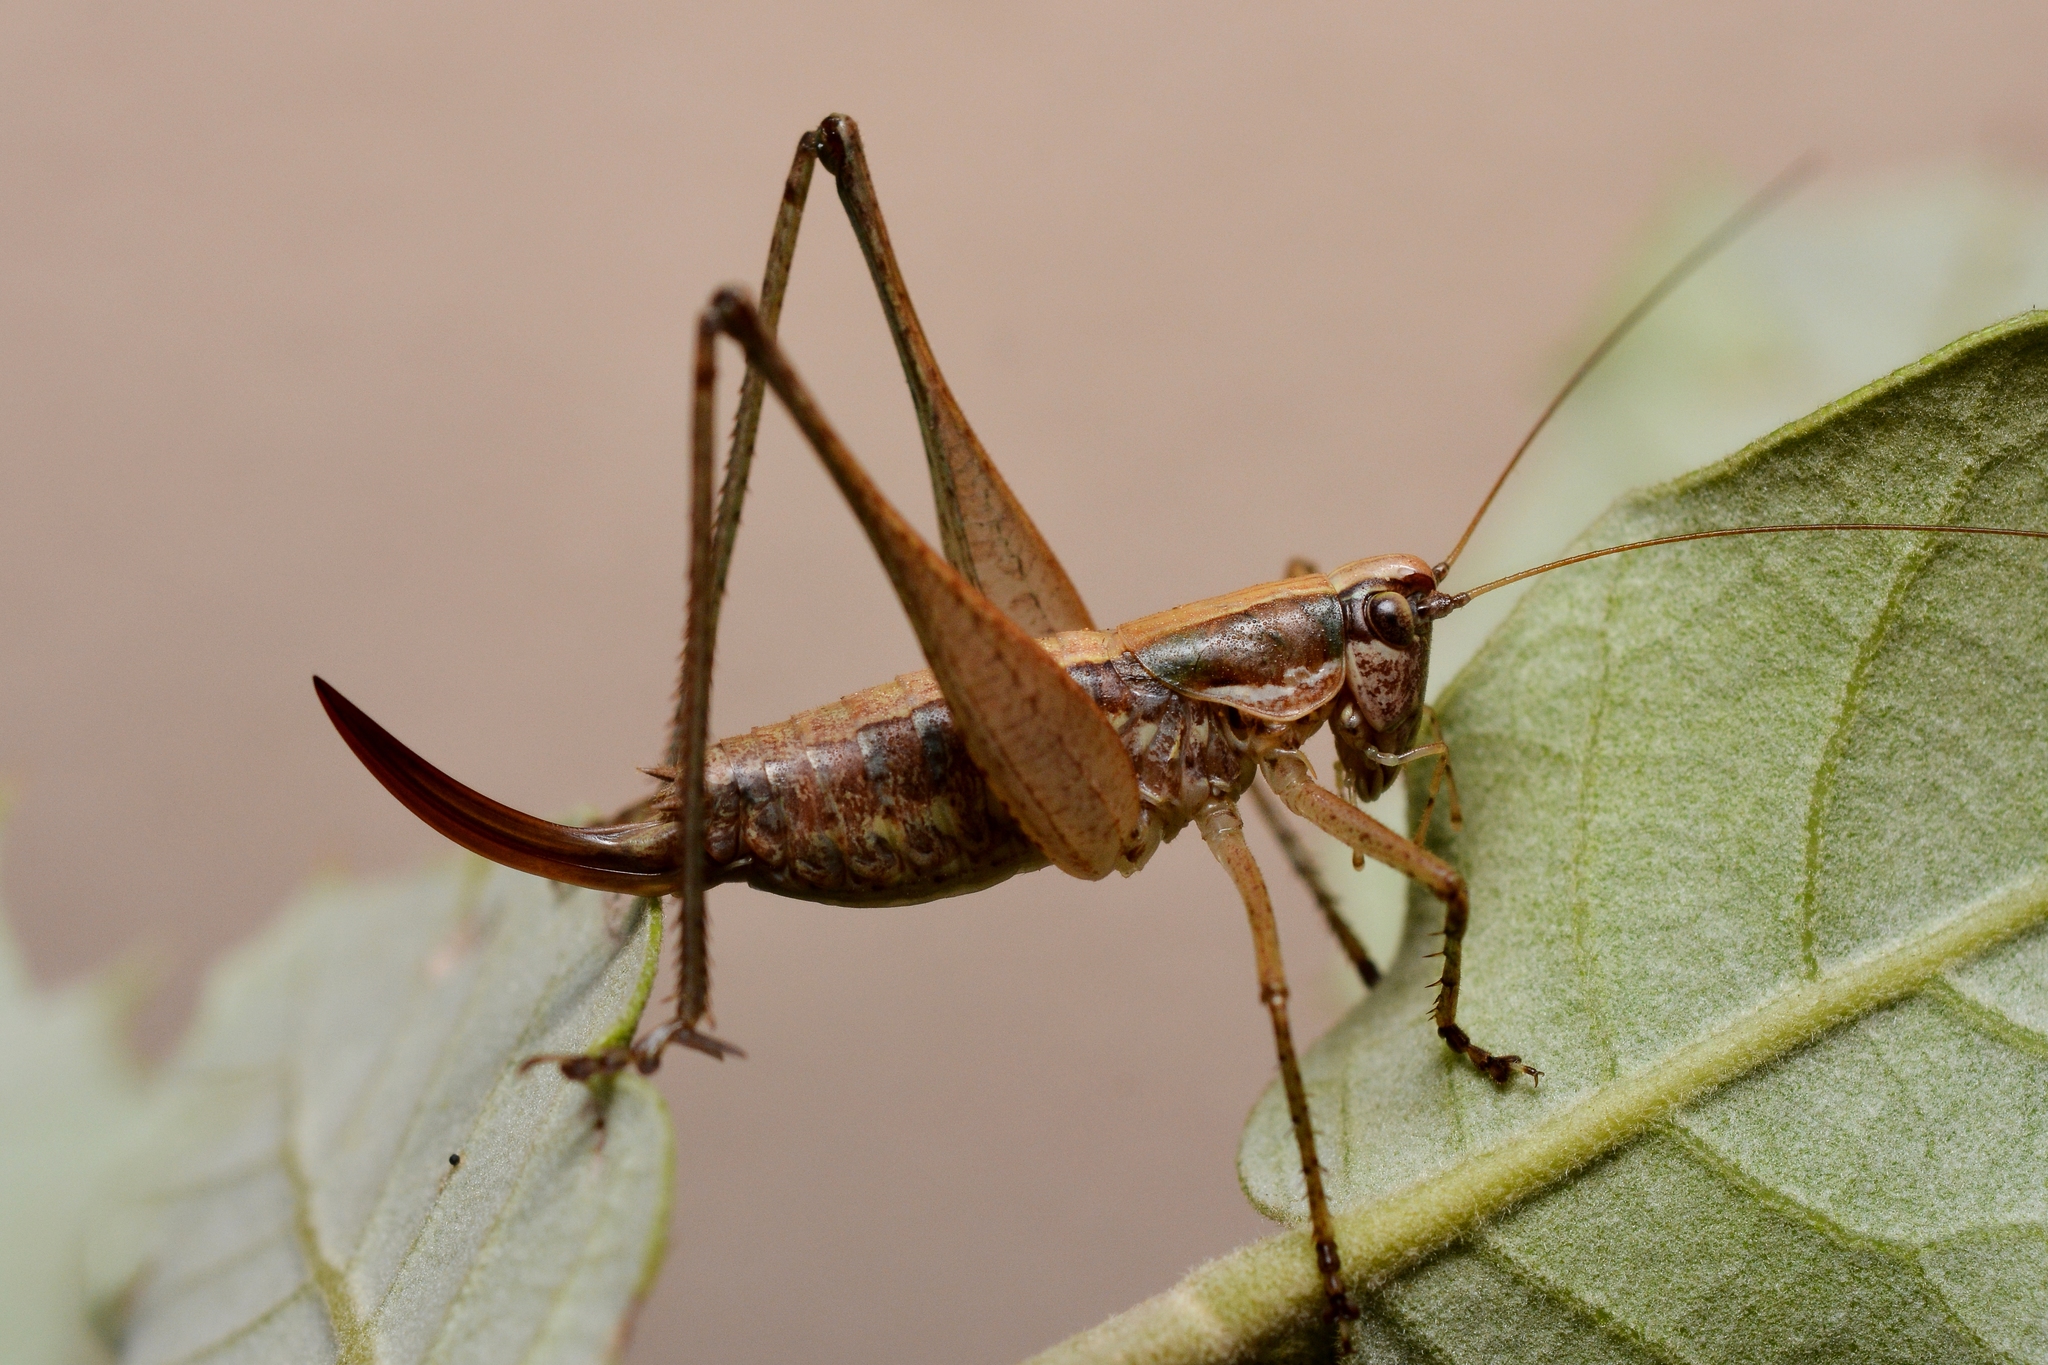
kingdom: Animalia
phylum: Arthropoda
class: Insecta
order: Orthoptera
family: Tettigoniidae
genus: Yersinella
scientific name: Yersinella raymondii
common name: Raymond's bush-cricket
